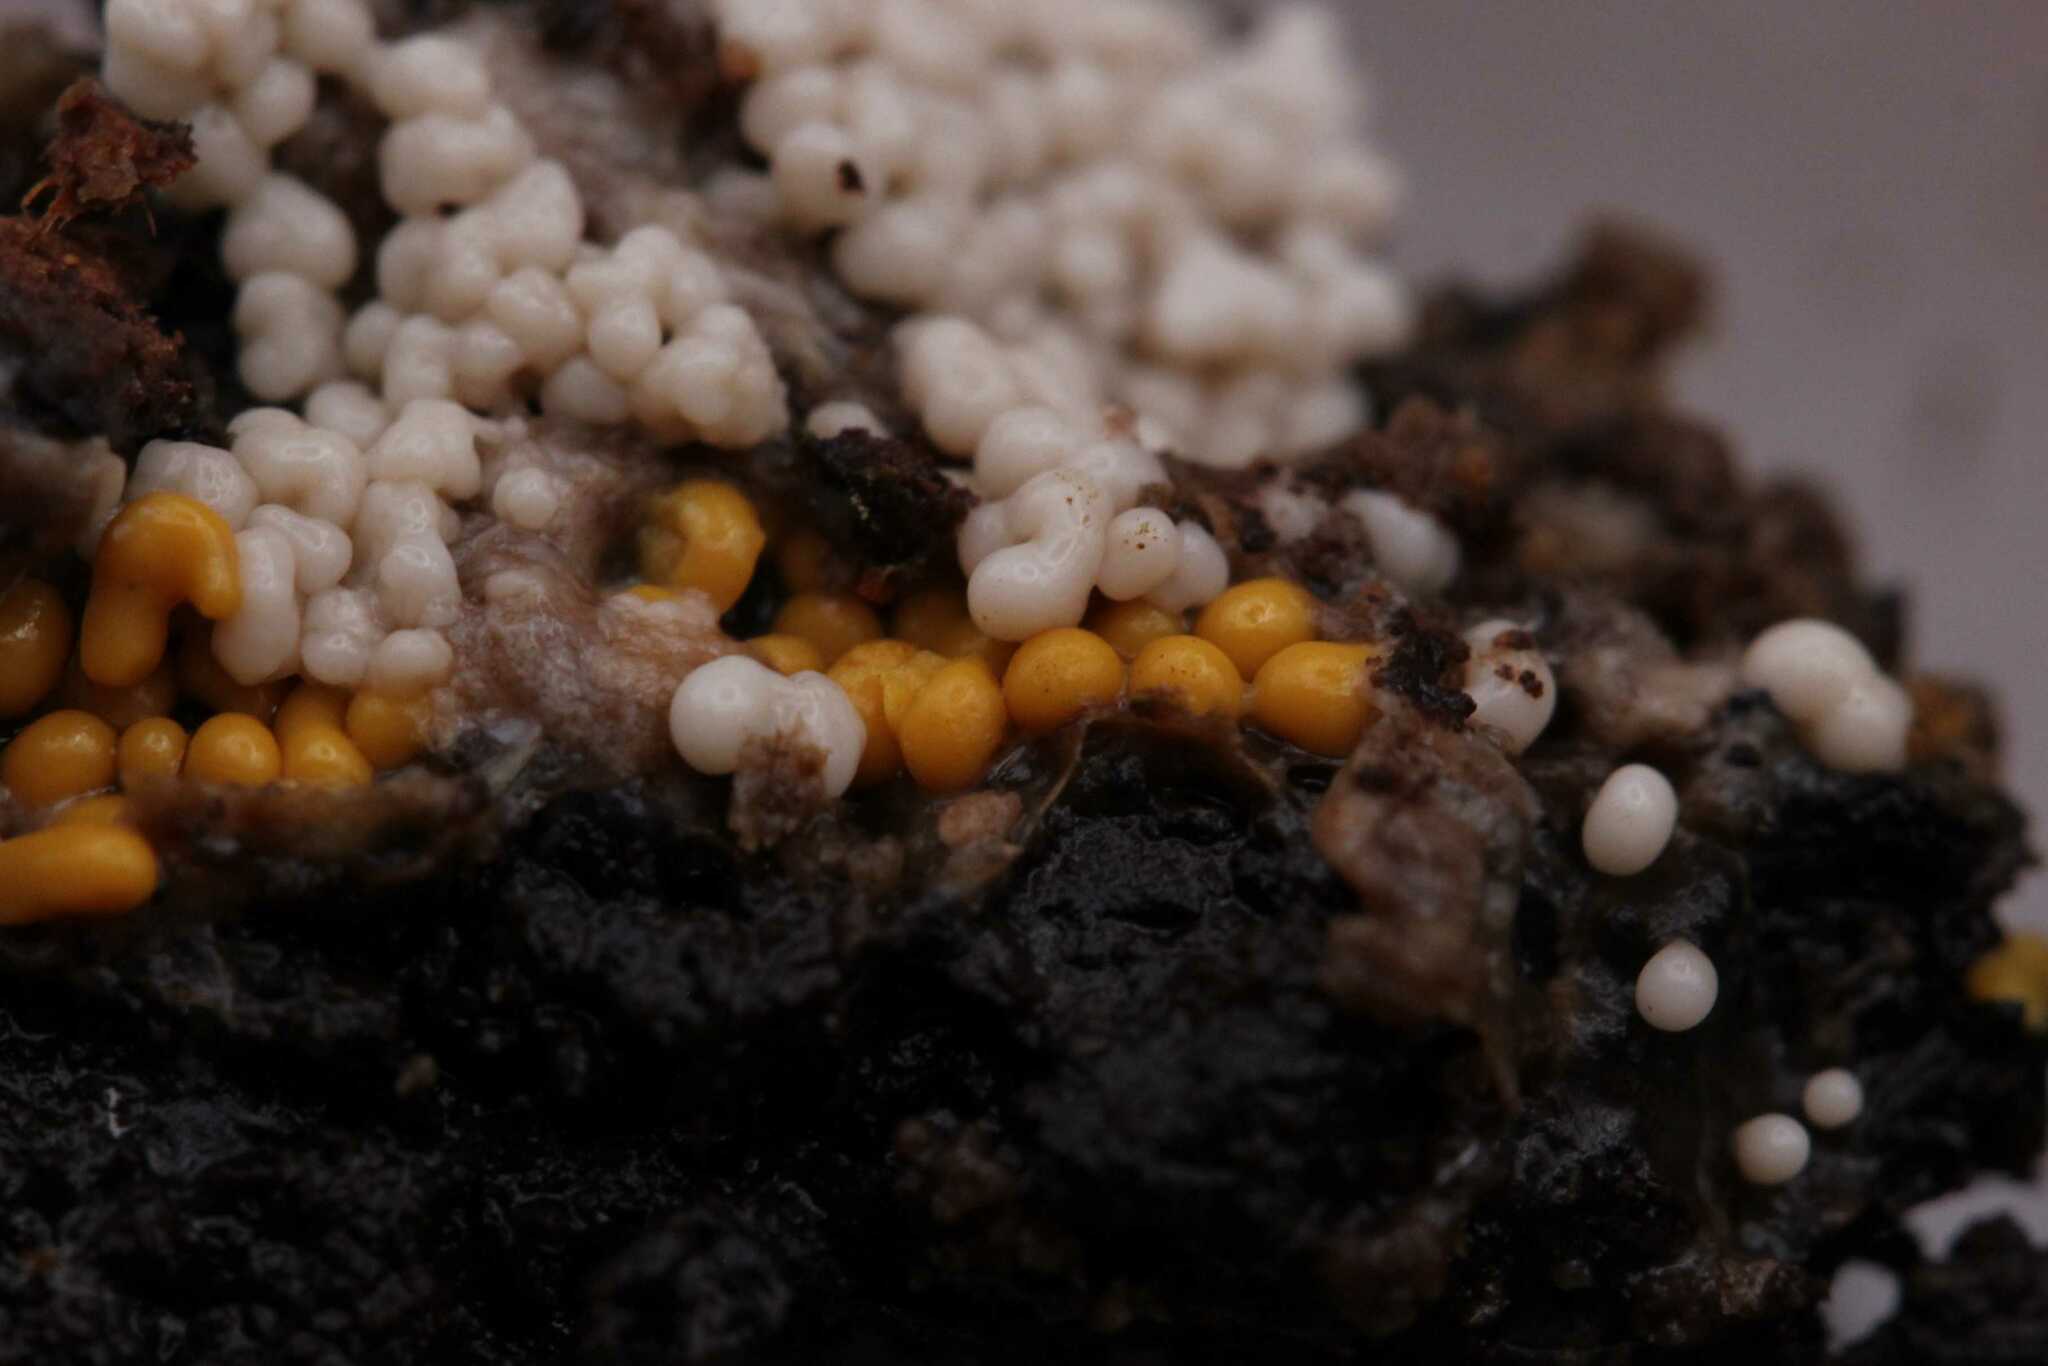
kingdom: Protozoa
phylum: Mycetozoa
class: Myxomycetes
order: Trichiales
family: Trichiaceae
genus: Trichia
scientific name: Trichia varia
